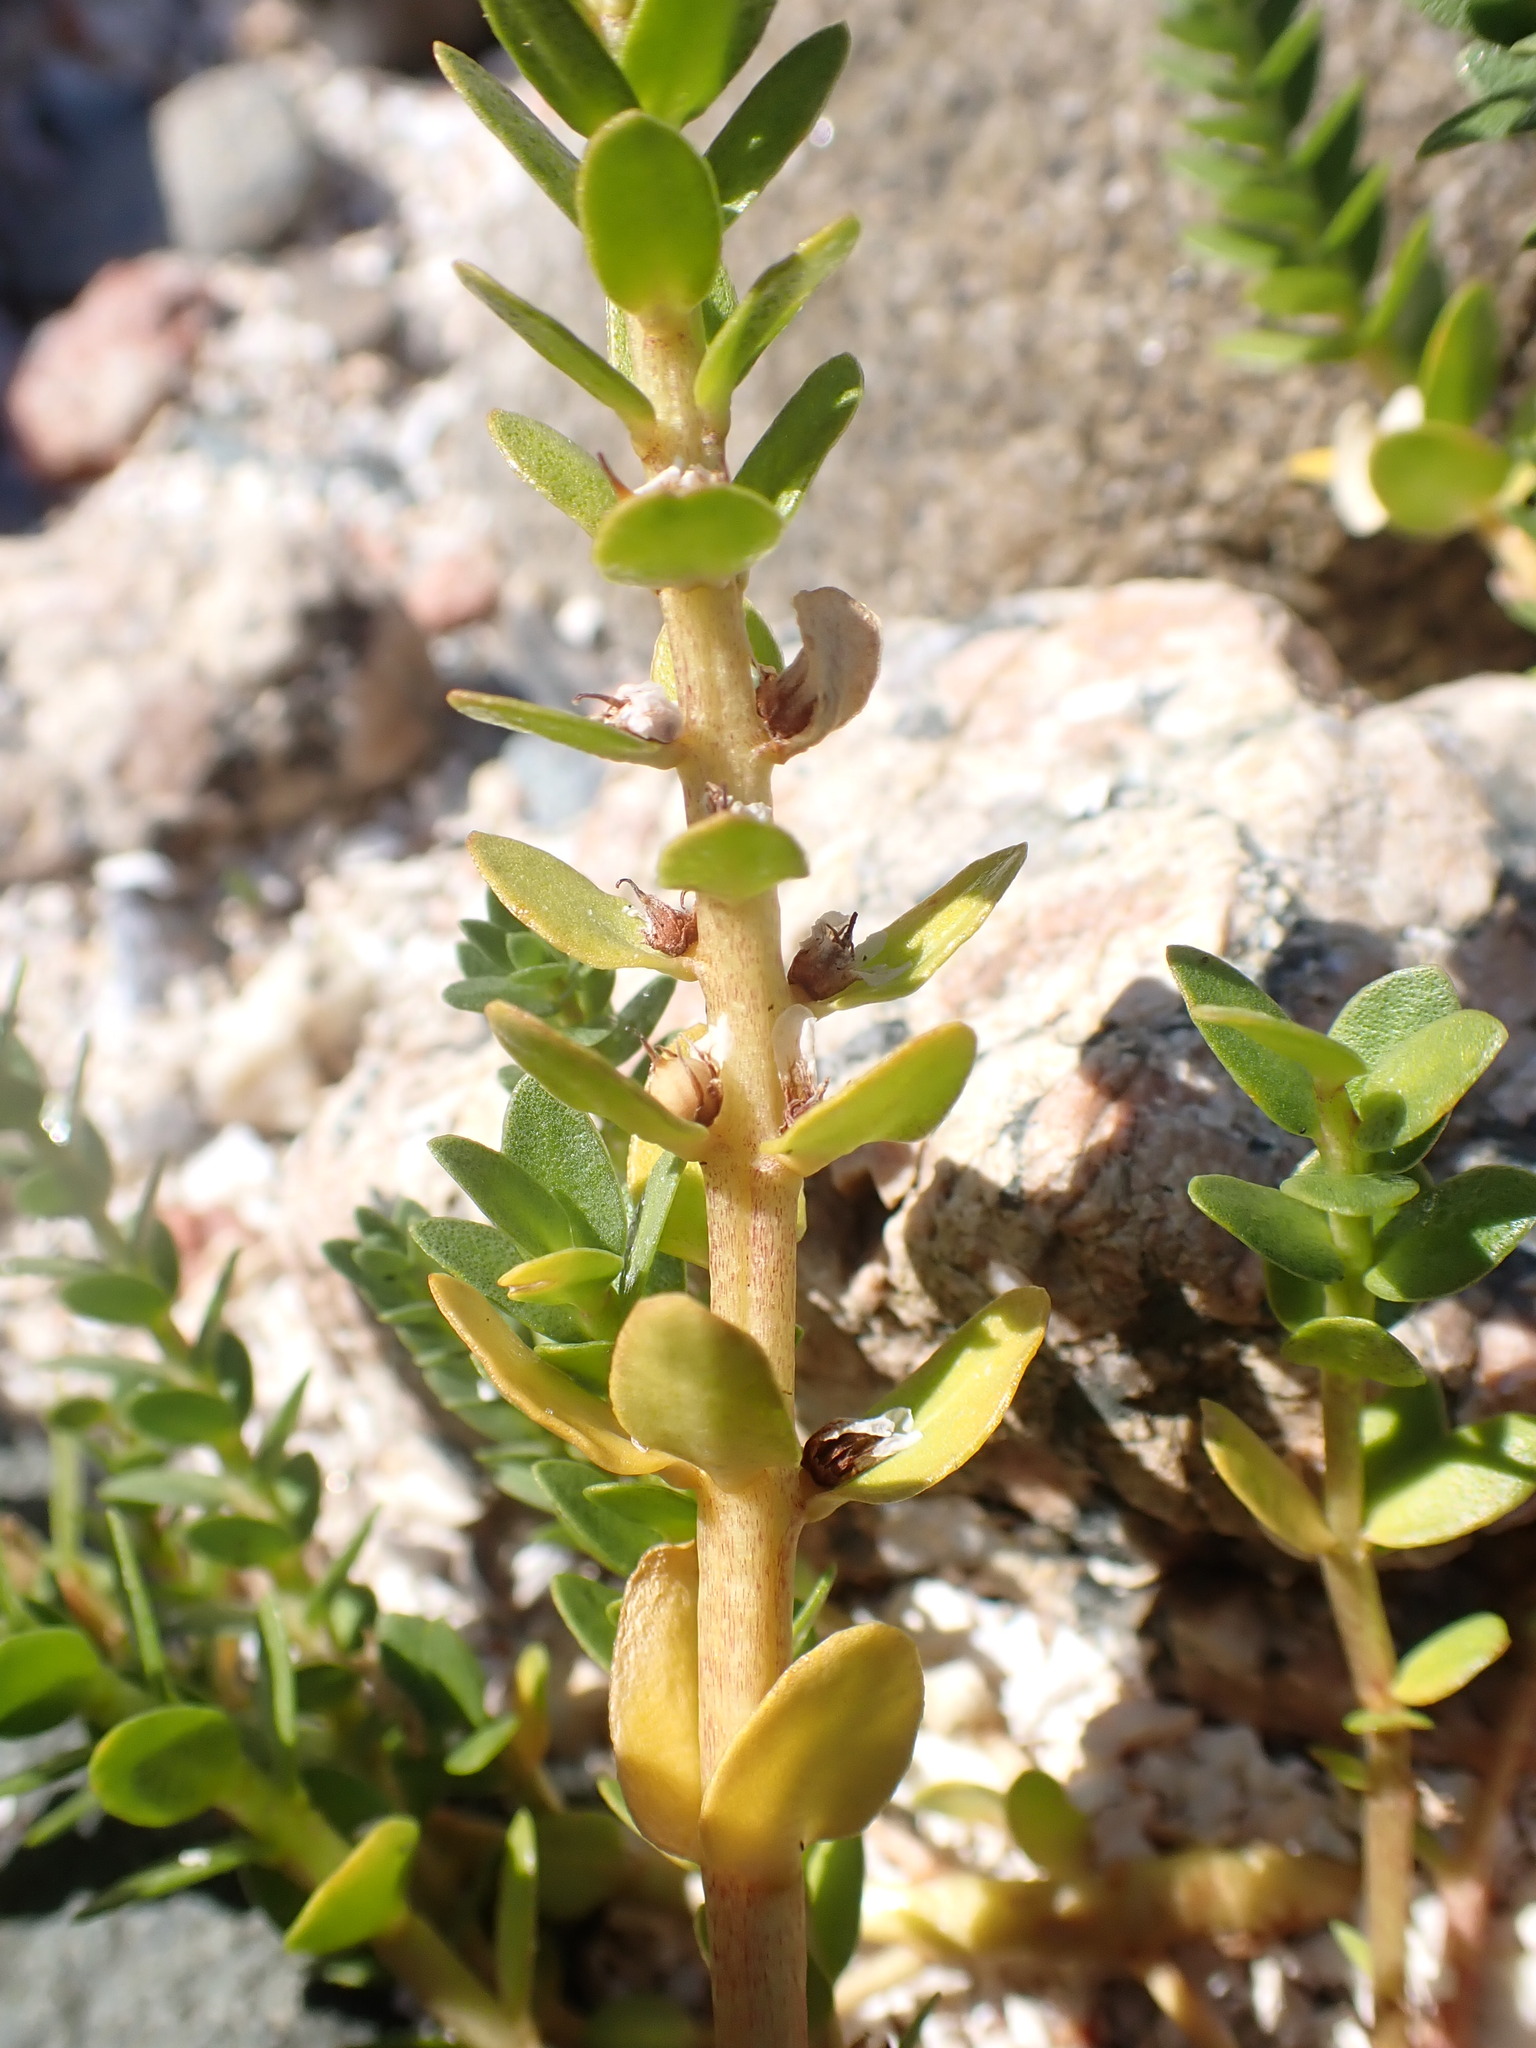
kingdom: Plantae
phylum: Tracheophyta
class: Magnoliopsida
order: Ericales
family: Primulaceae
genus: Lysimachia
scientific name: Lysimachia maritima
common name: Sea milkwort
